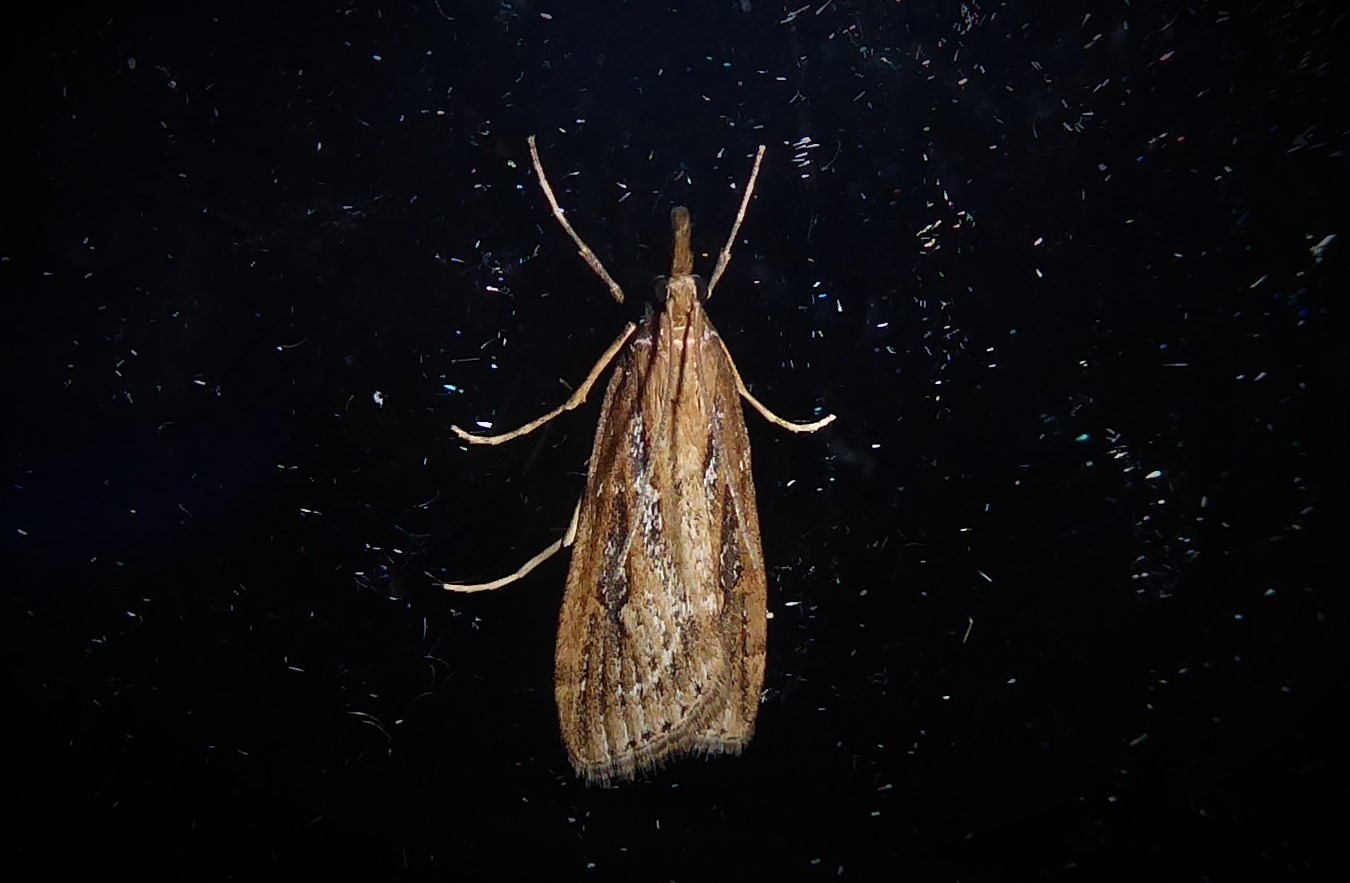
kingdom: Animalia
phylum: Arthropoda
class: Insecta
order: Lepidoptera
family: Crambidae
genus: Eudonia
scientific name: Eudonia octophora
